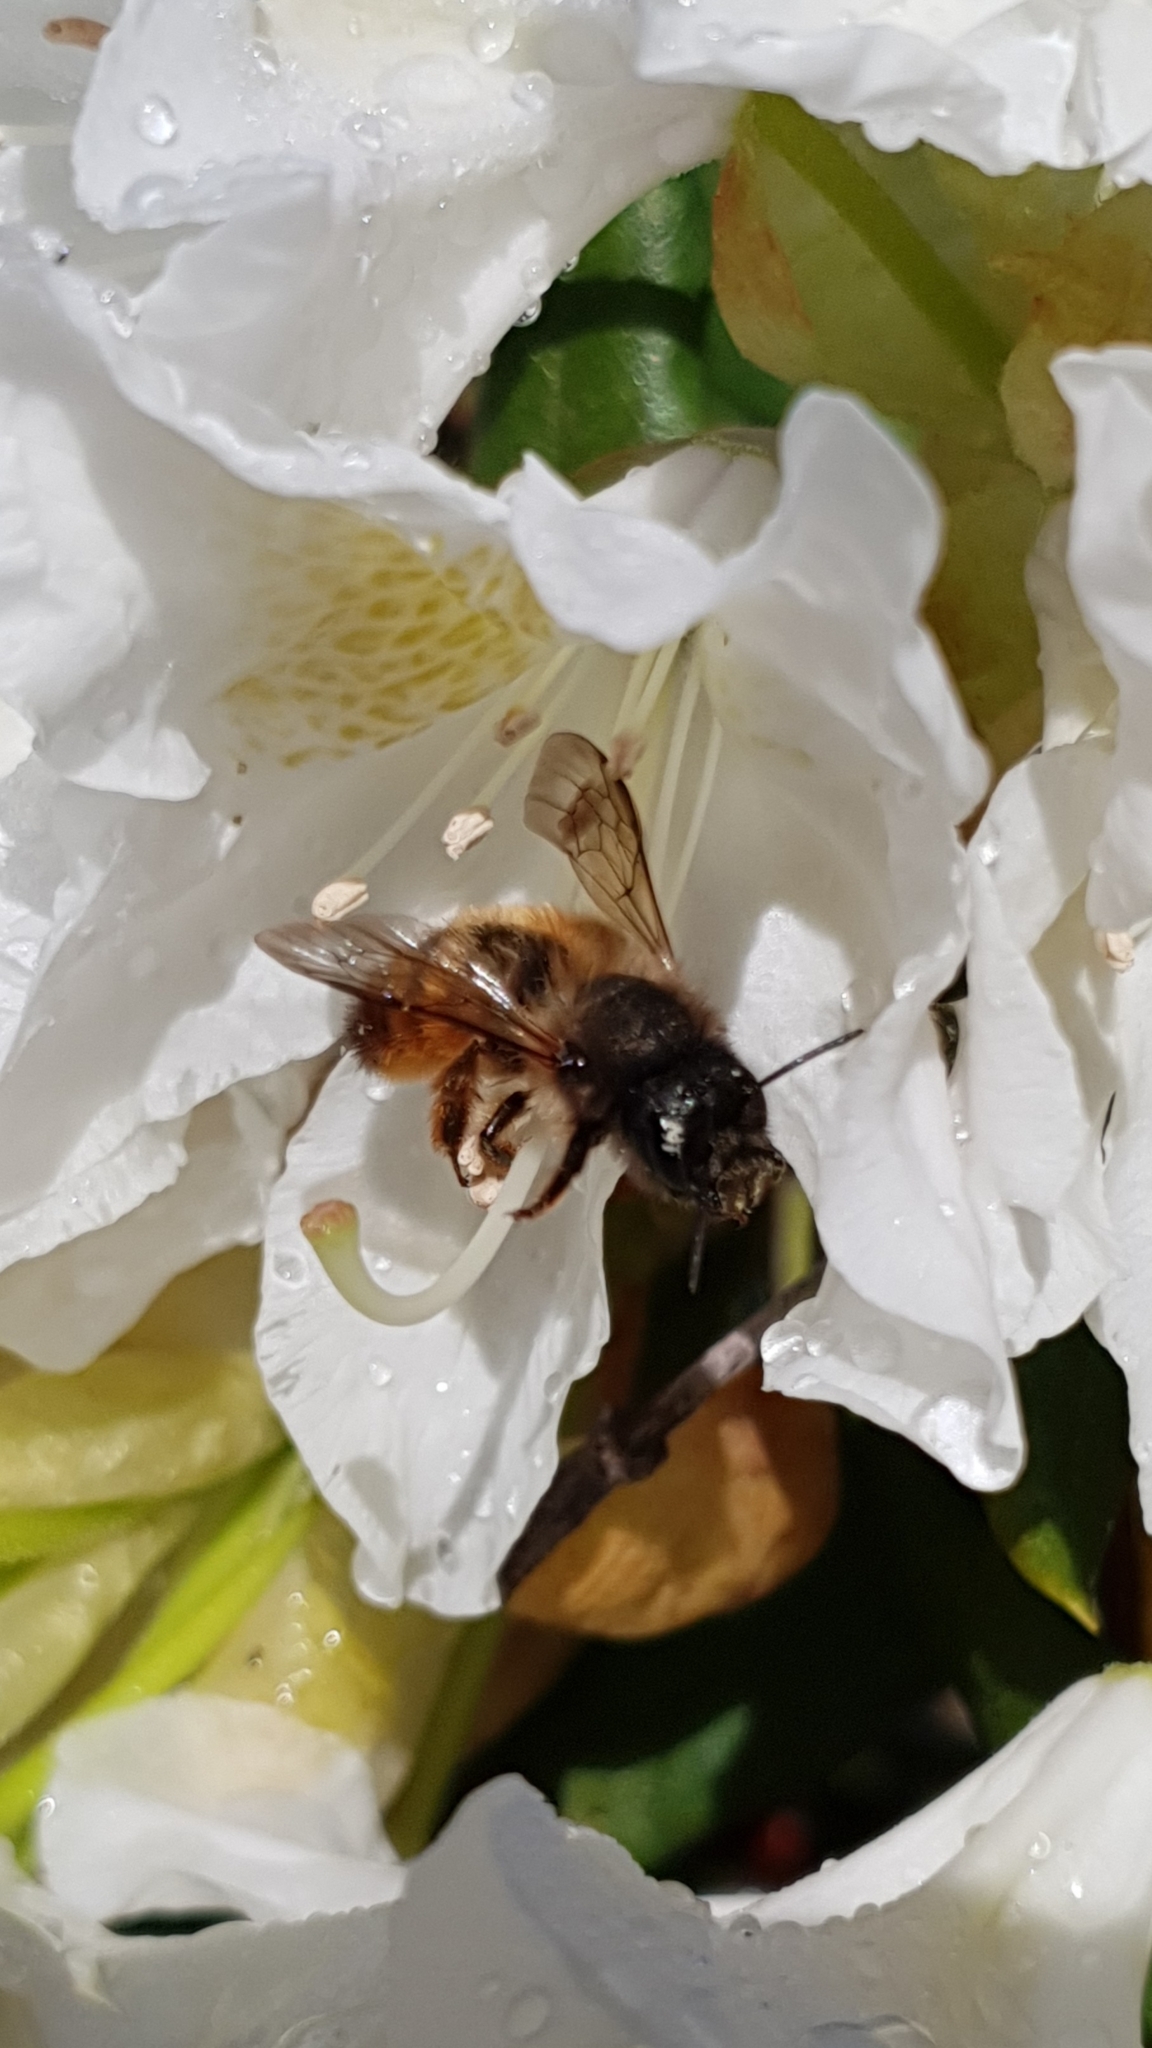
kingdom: Animalia
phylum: Arthropoda
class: Insecta
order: Hymenoptera
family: Megachilidae
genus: Osmia
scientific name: Osmia bicornis
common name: Red mason bee
